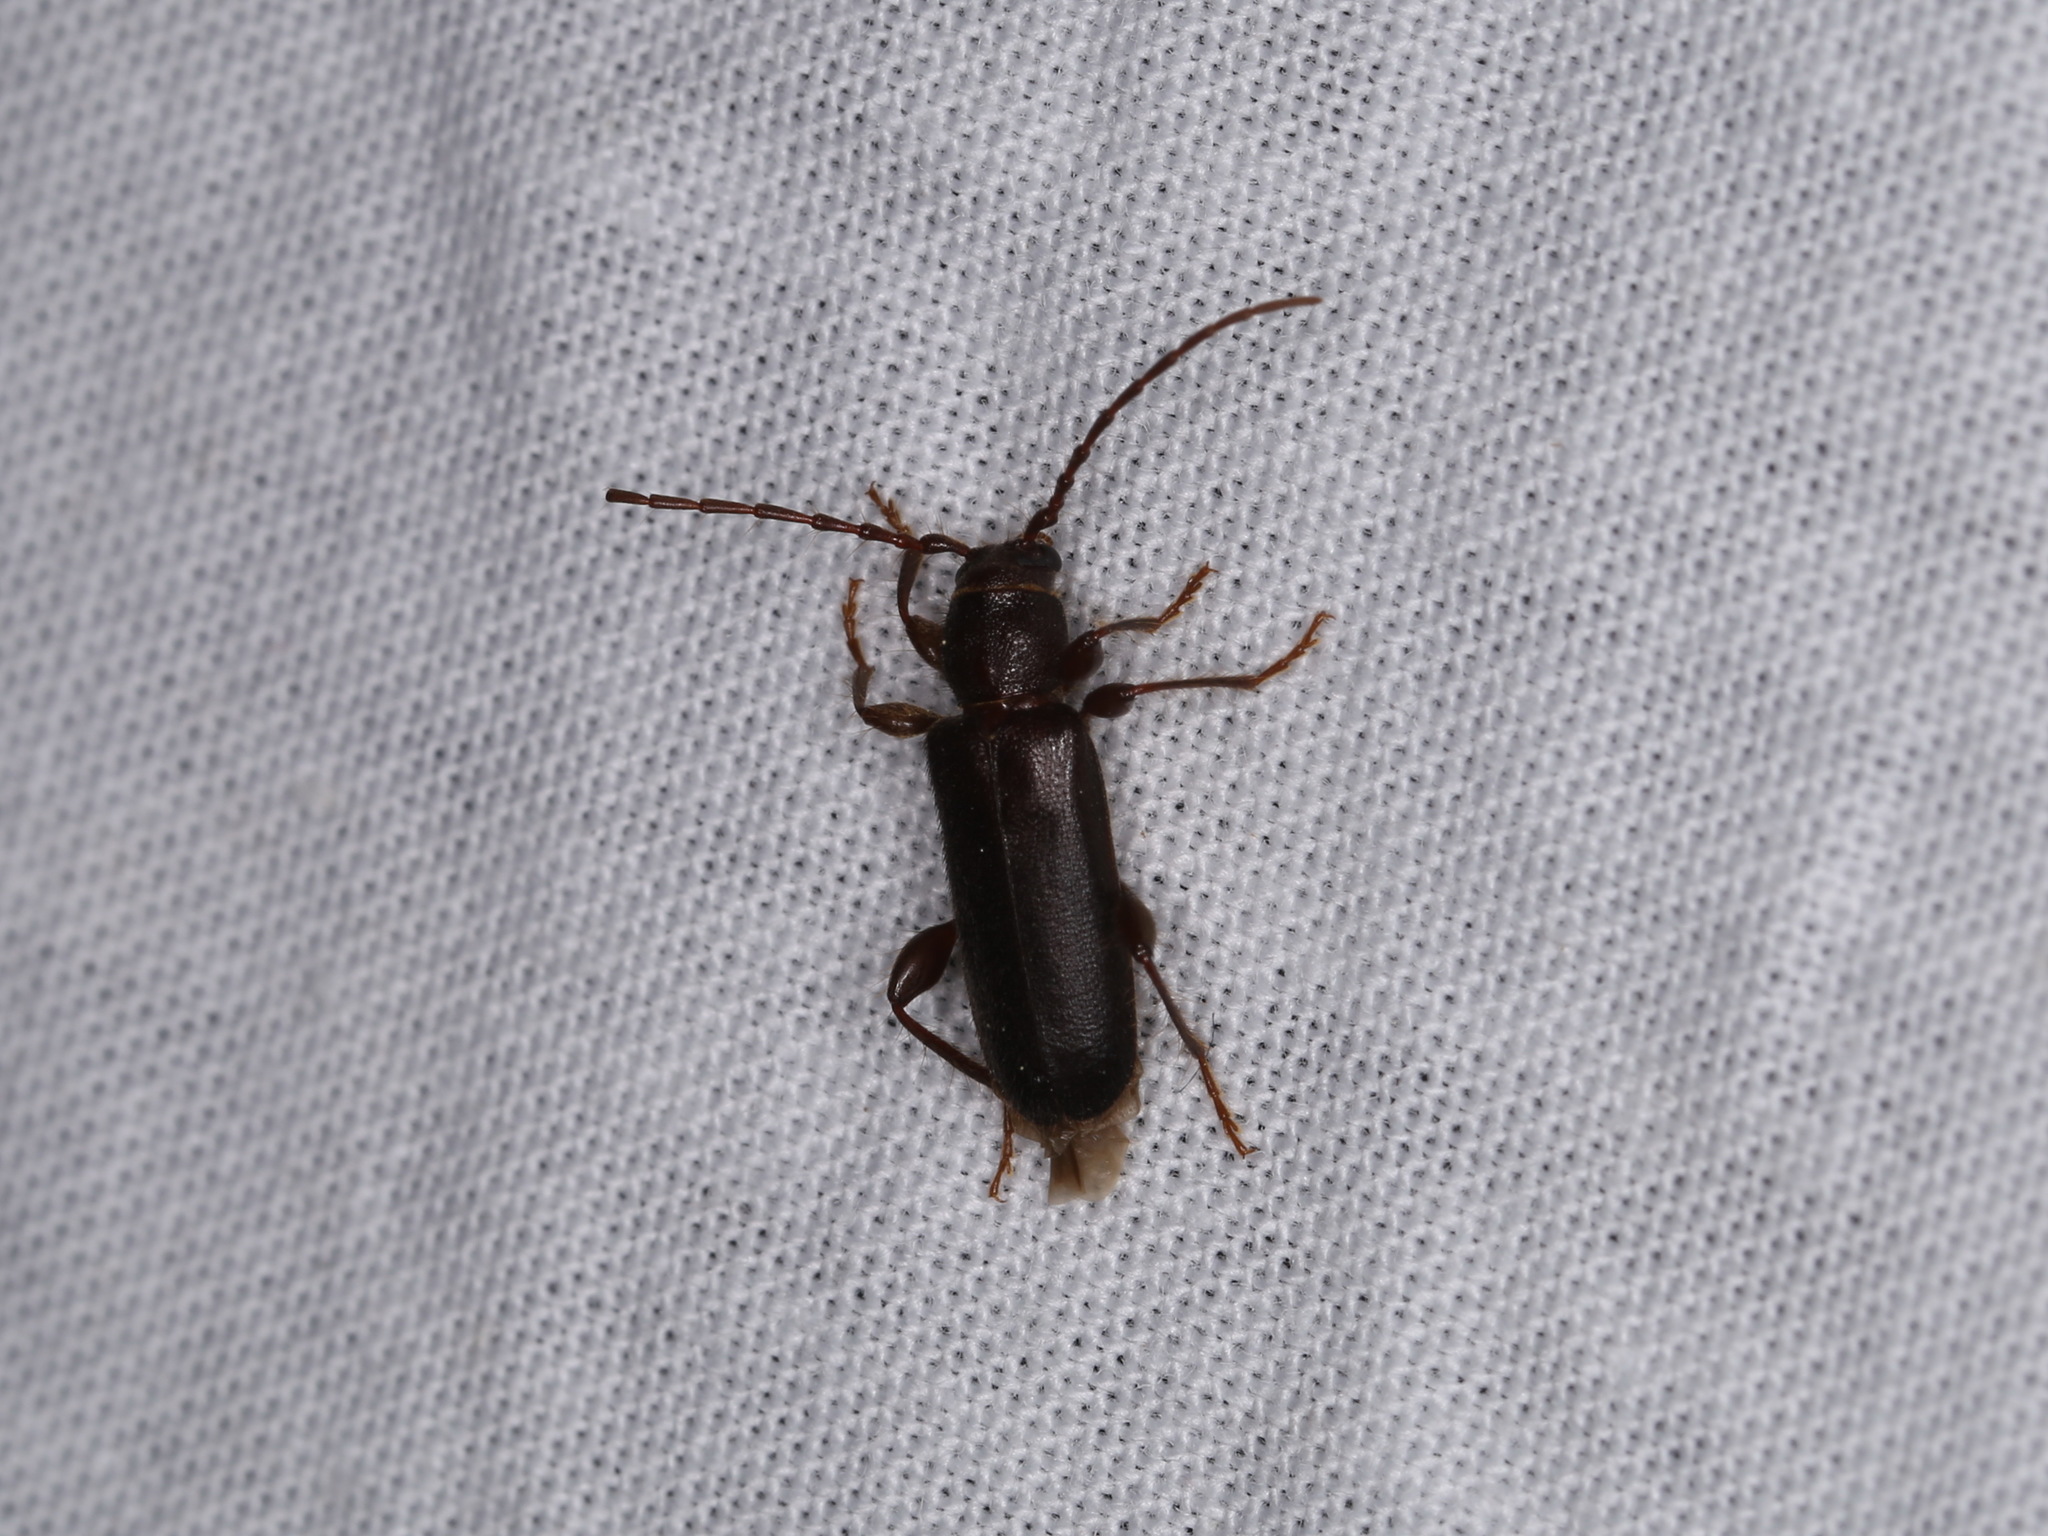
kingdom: Animalia
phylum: Arthropoda
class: Insecta
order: Coleoptera
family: Cerambycidae
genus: Phymatodes
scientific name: Phymatodes grandis
